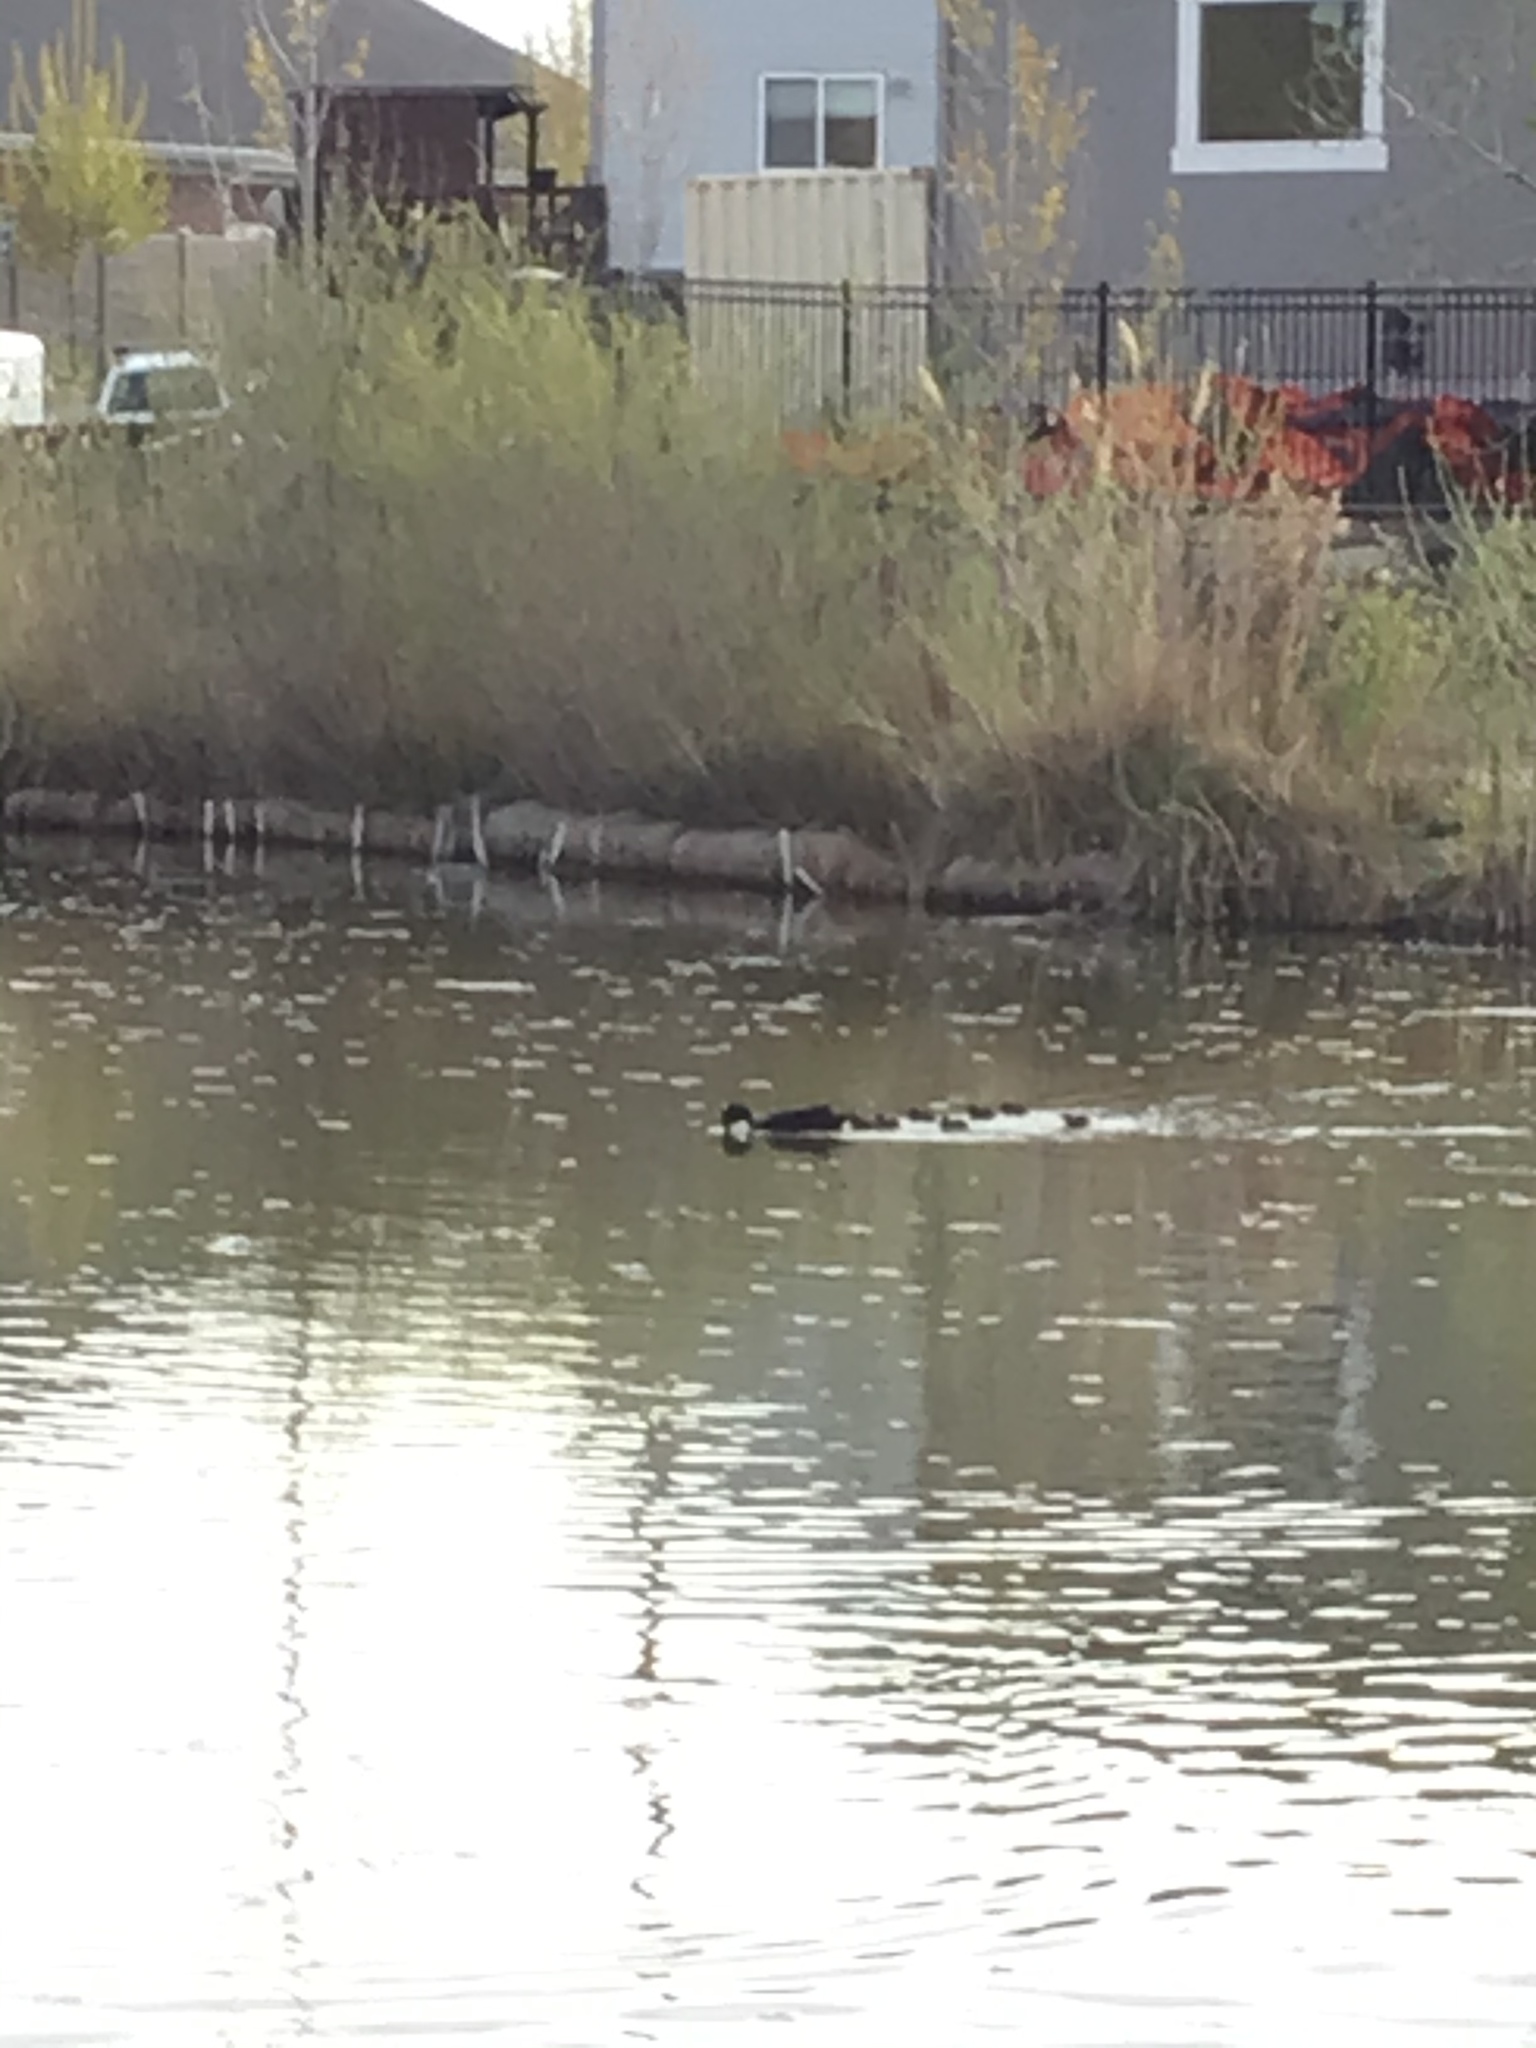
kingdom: Animalia
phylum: Chordata
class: Aves
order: Anseriformes
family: Anatidae
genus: Anas
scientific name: Anas platyrhynchos
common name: Mallard
